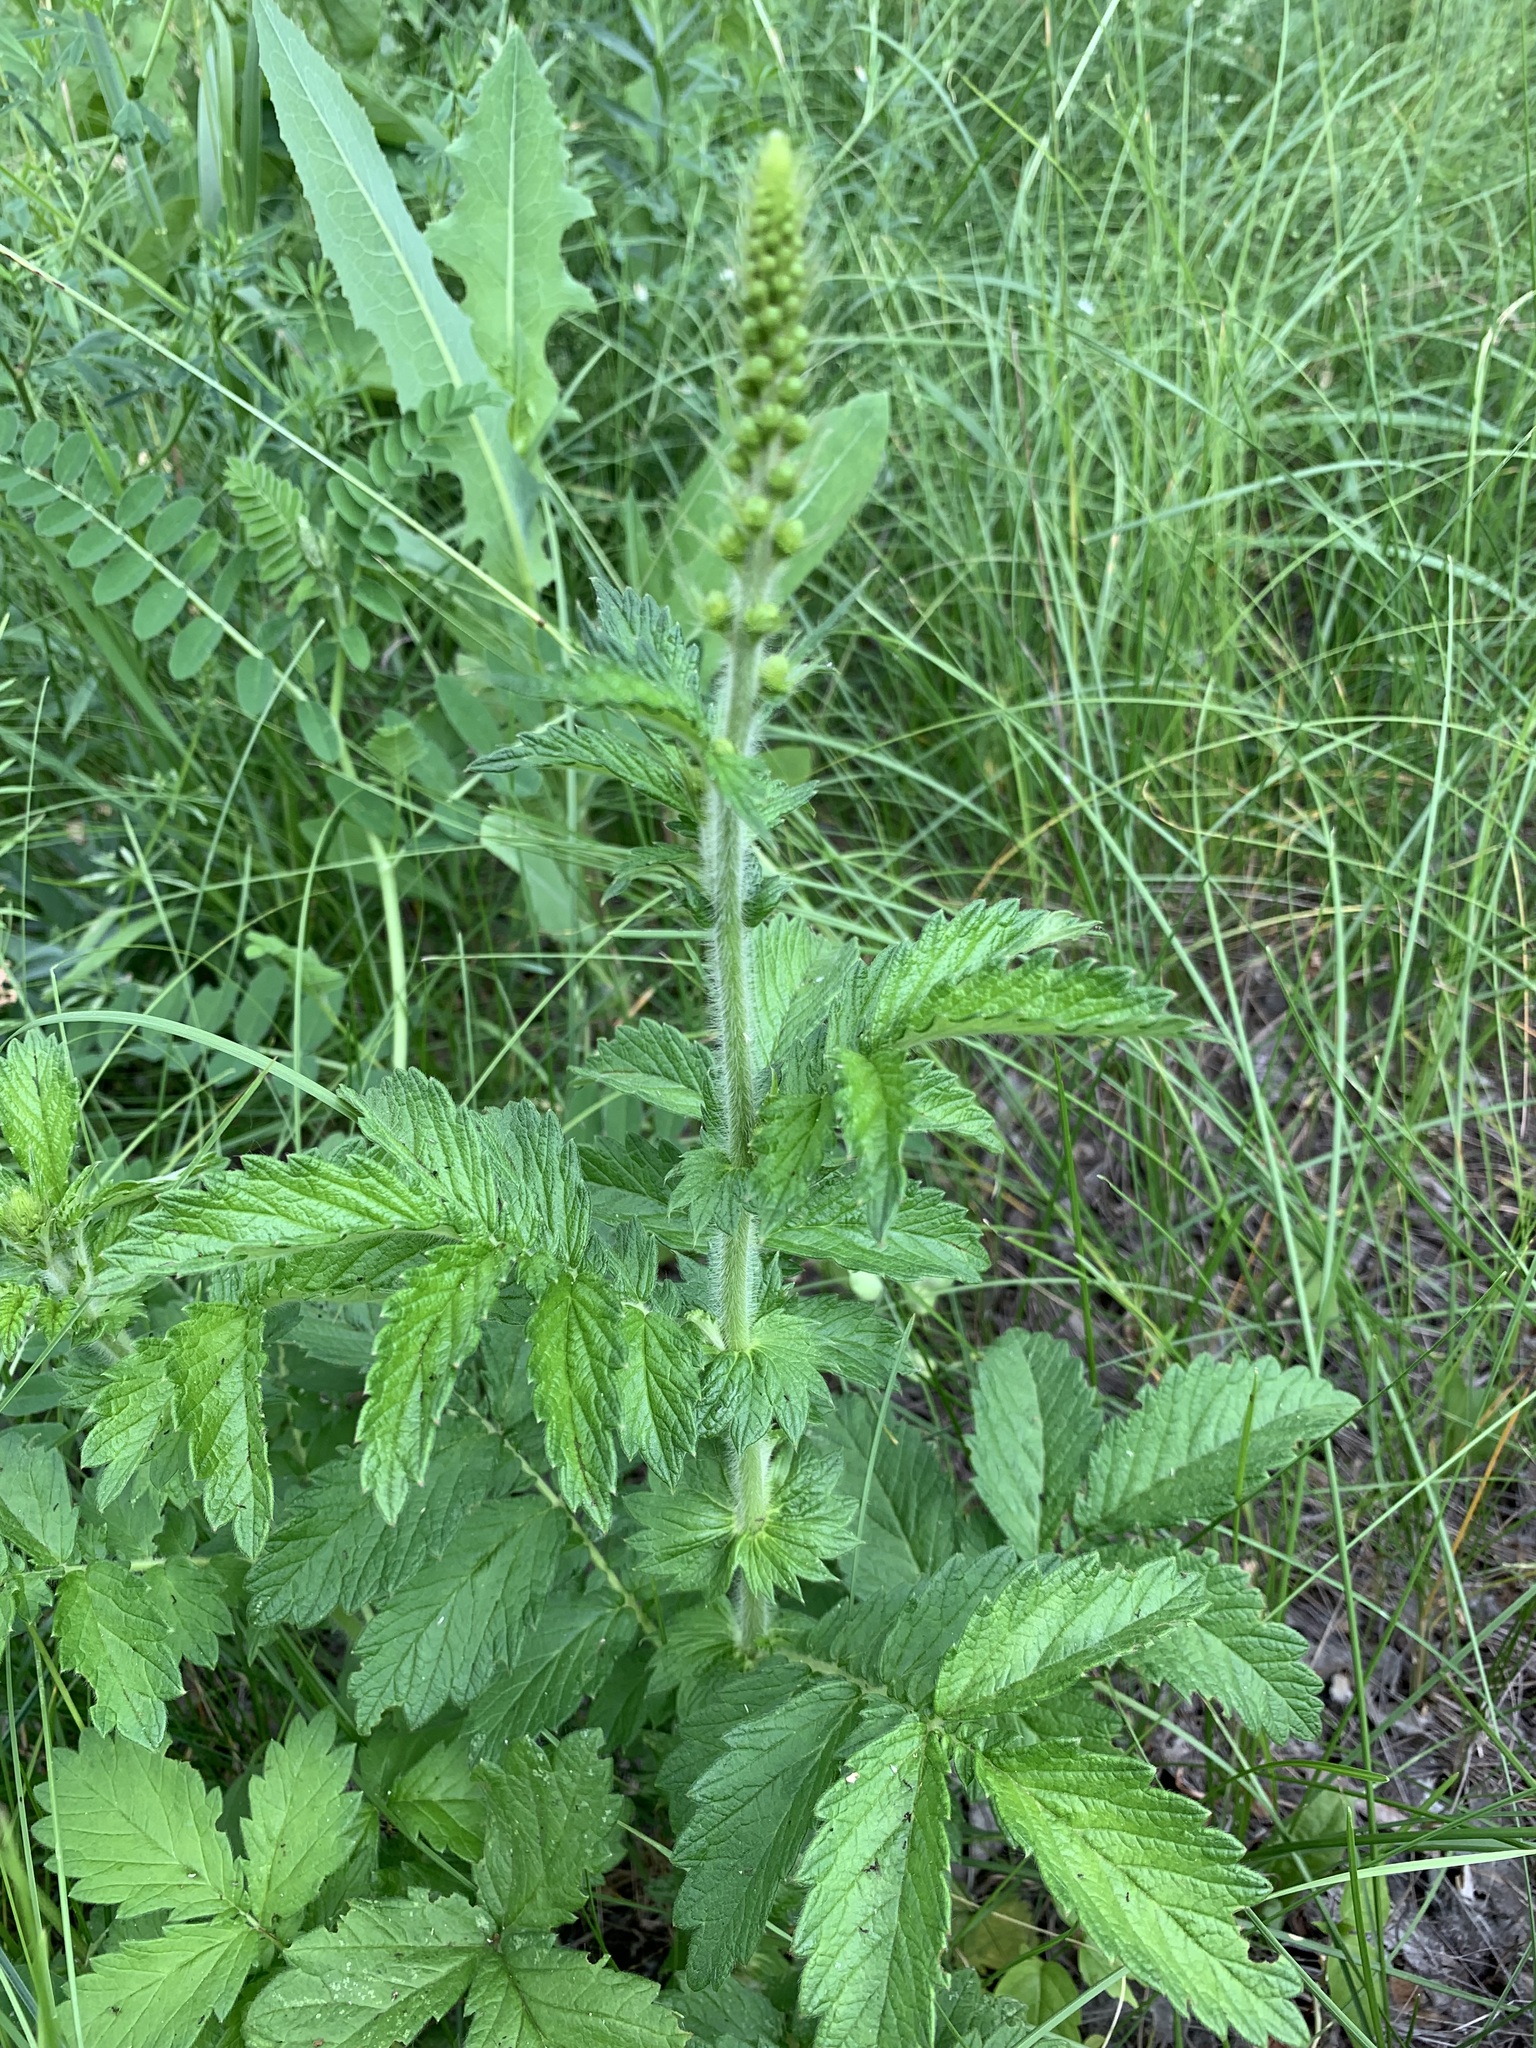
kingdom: Plantae
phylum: Tracheophyta
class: Magnoliopsida
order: Rosales
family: Rosaceae
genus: Agrimonia
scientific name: Agrimonia eupatoria
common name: Agrimony
